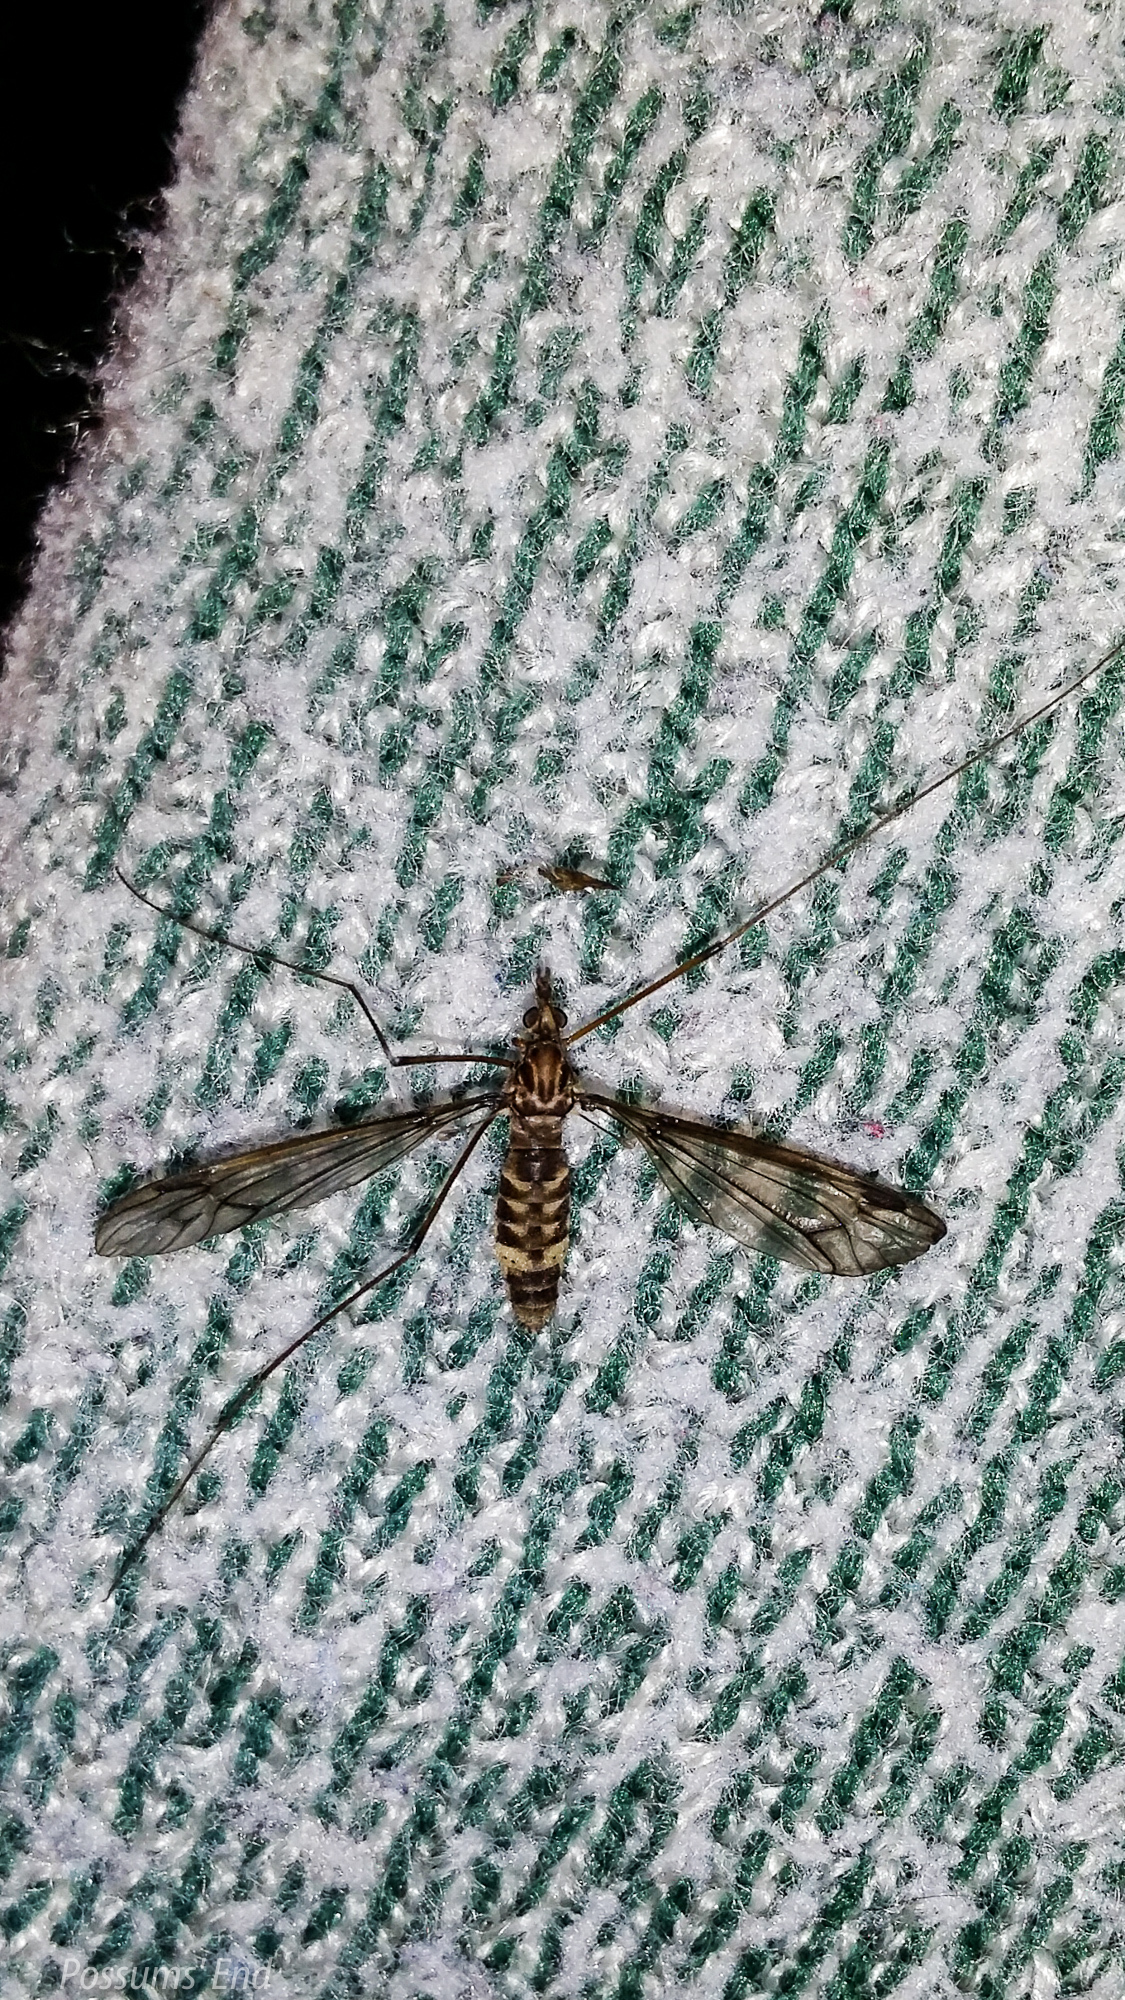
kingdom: Animalia
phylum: Arthropoda
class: Insecta
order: Diptera
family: Tipulidae
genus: Leptotarsus
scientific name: Leptotarsus cubitalis
